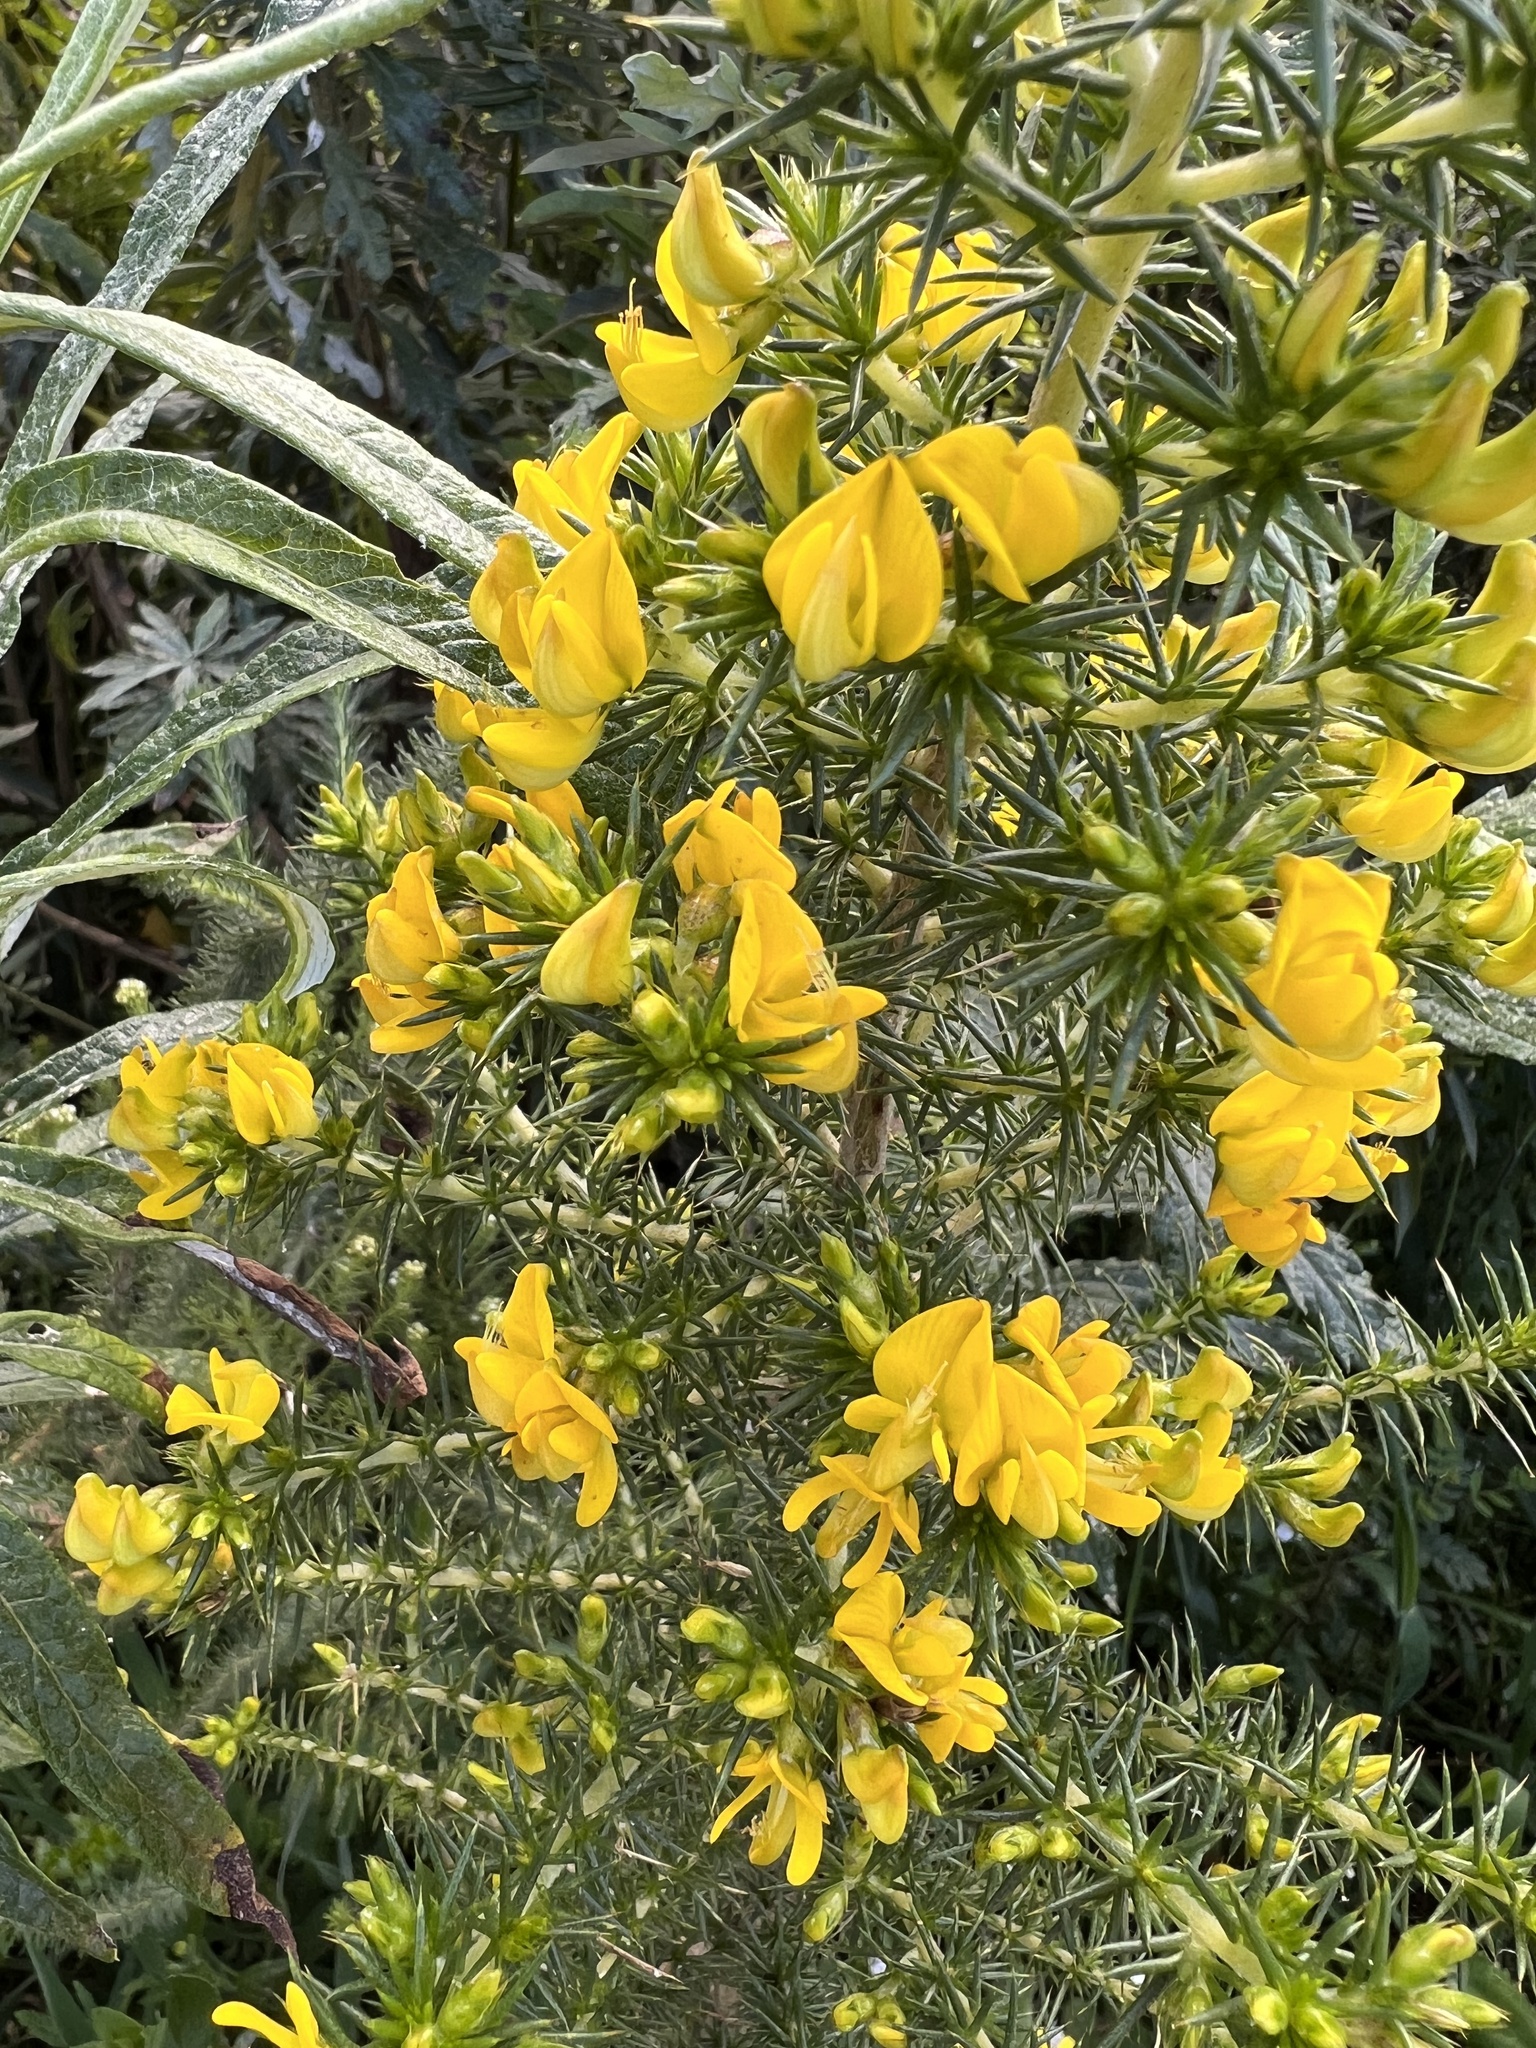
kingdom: Plantae
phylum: Tracheophyta
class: Magnoliopsida
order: Fabales
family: Fabaceae
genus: Aspalathus
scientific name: Aspalathus astroites
